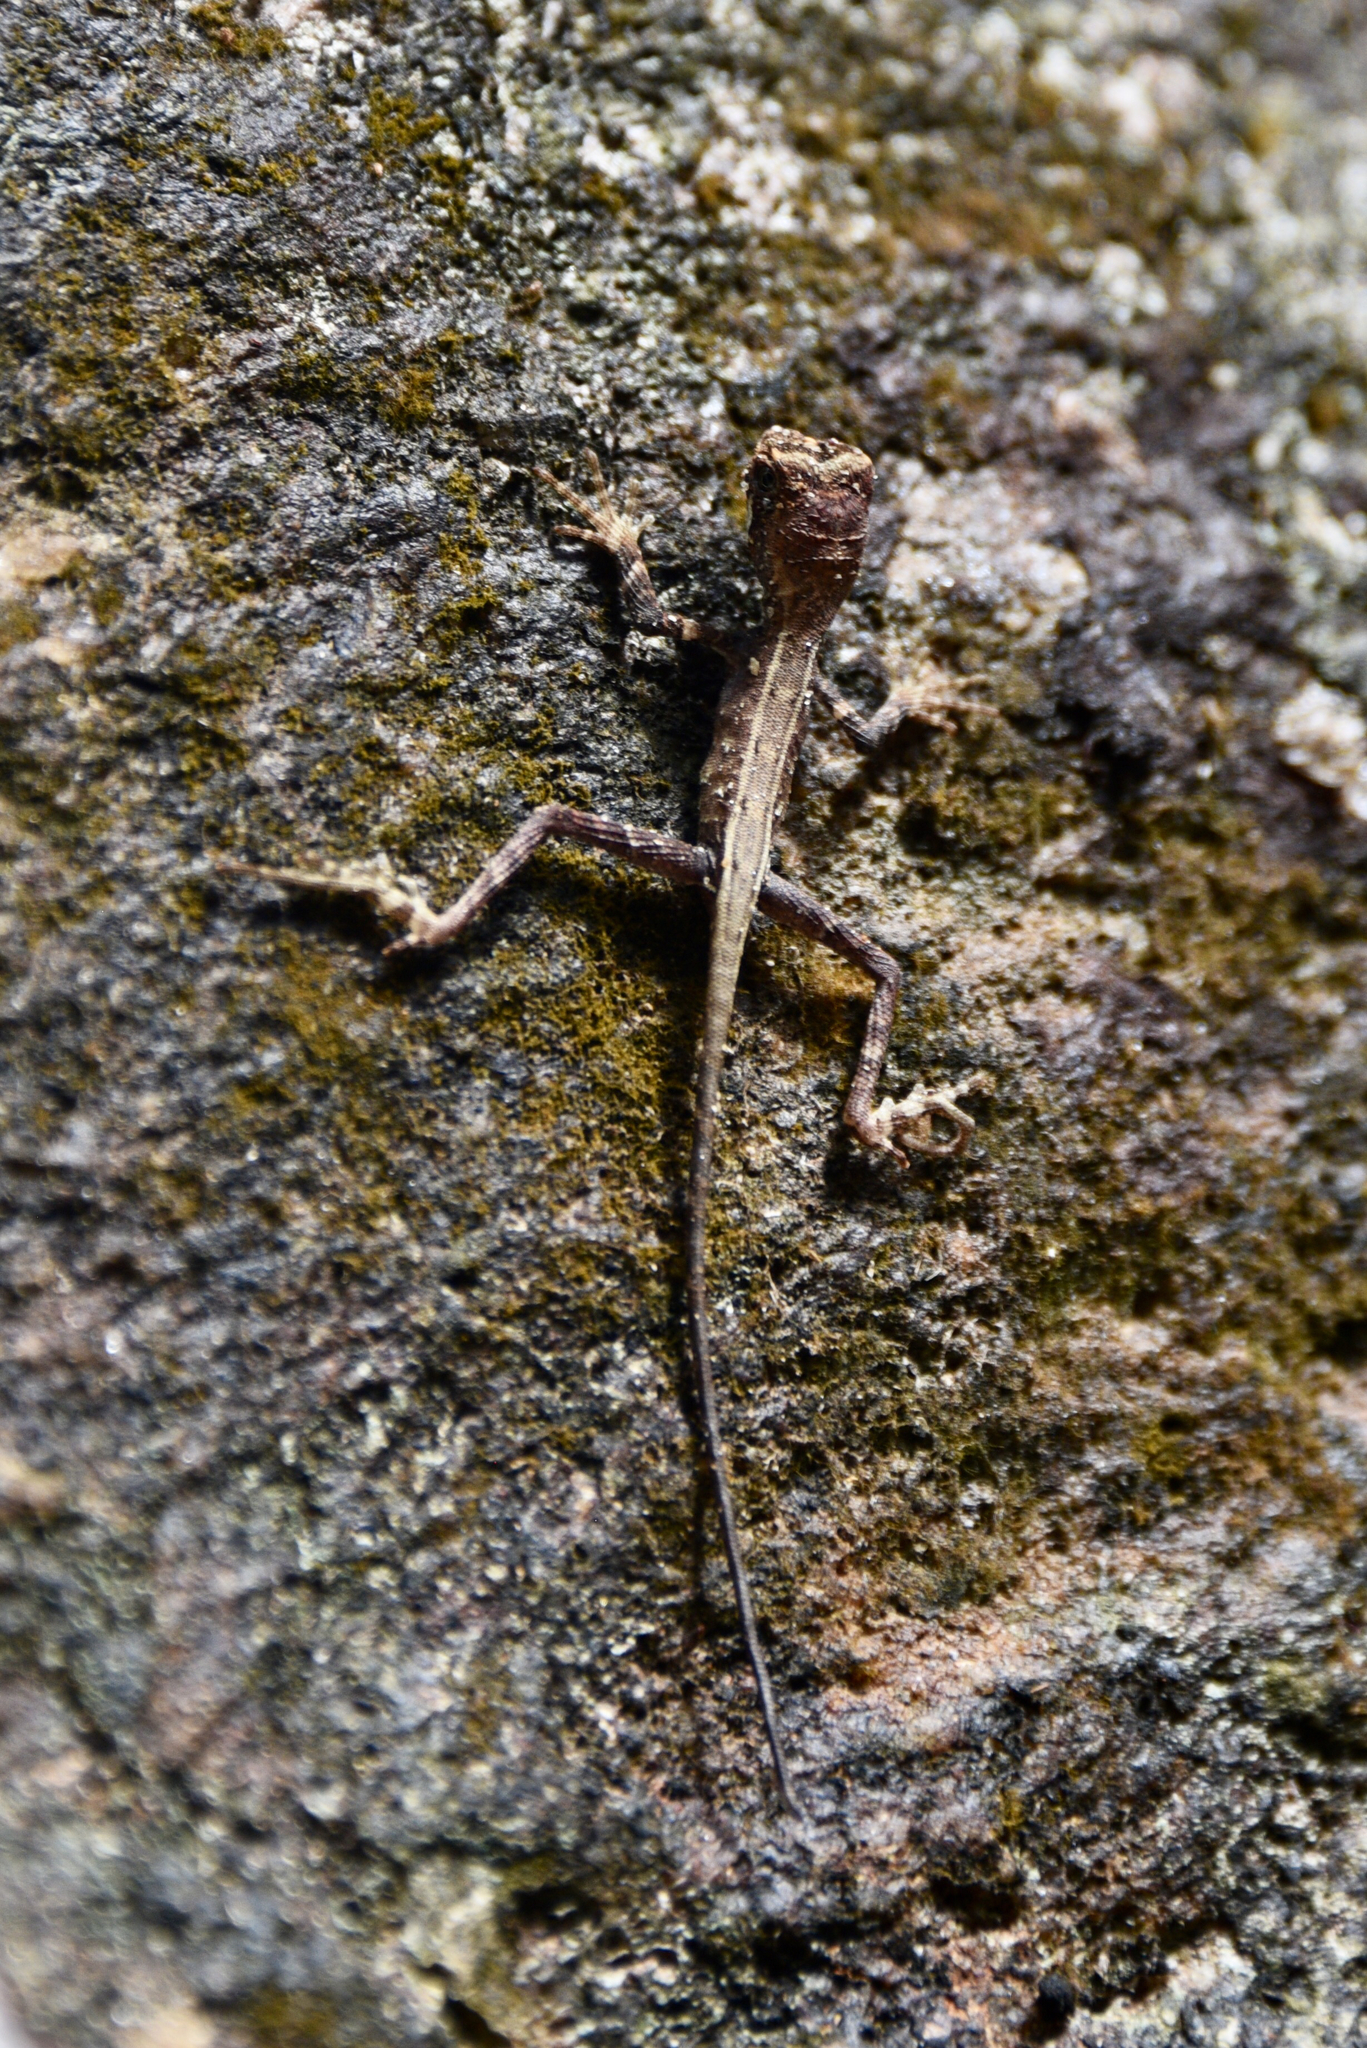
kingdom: Animalia
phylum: Chordata
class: Squamata
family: Agamidae
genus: Otocryptis
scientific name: Otocryptis wiegmanni
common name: Wiegmann's agama
